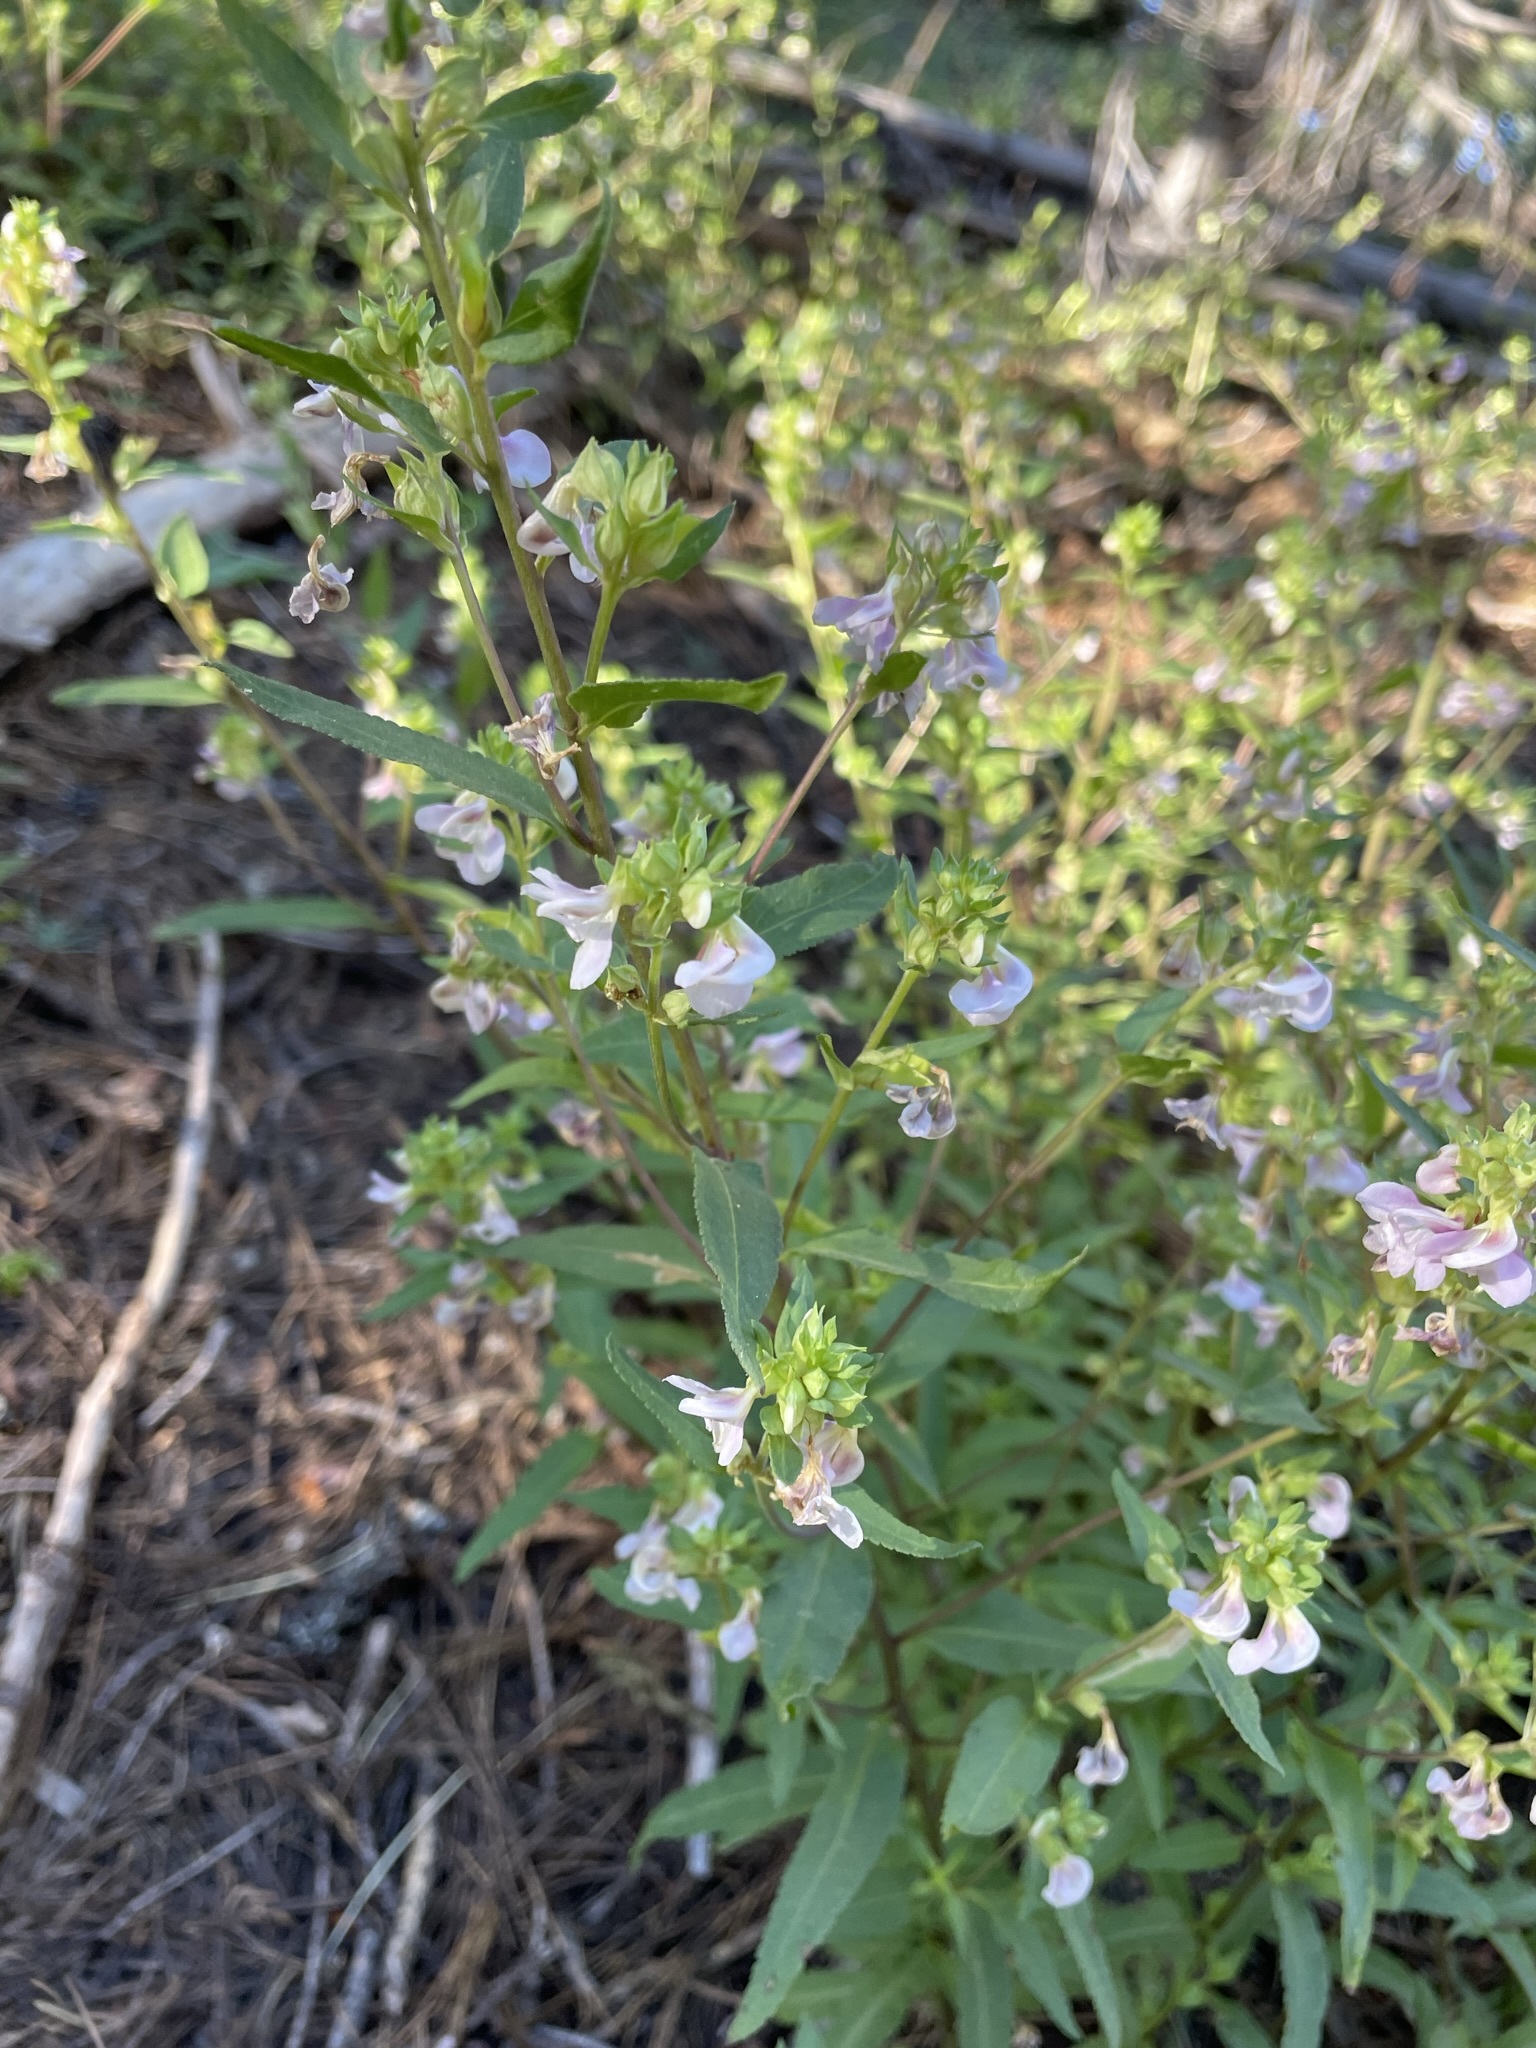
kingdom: Plantae
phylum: Tracheophyta
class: Magnoliopsida
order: Lamiales
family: Orobanchaceae
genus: Pedicularis
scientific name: Pedicularis racemosa
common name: Leafy lousewort
